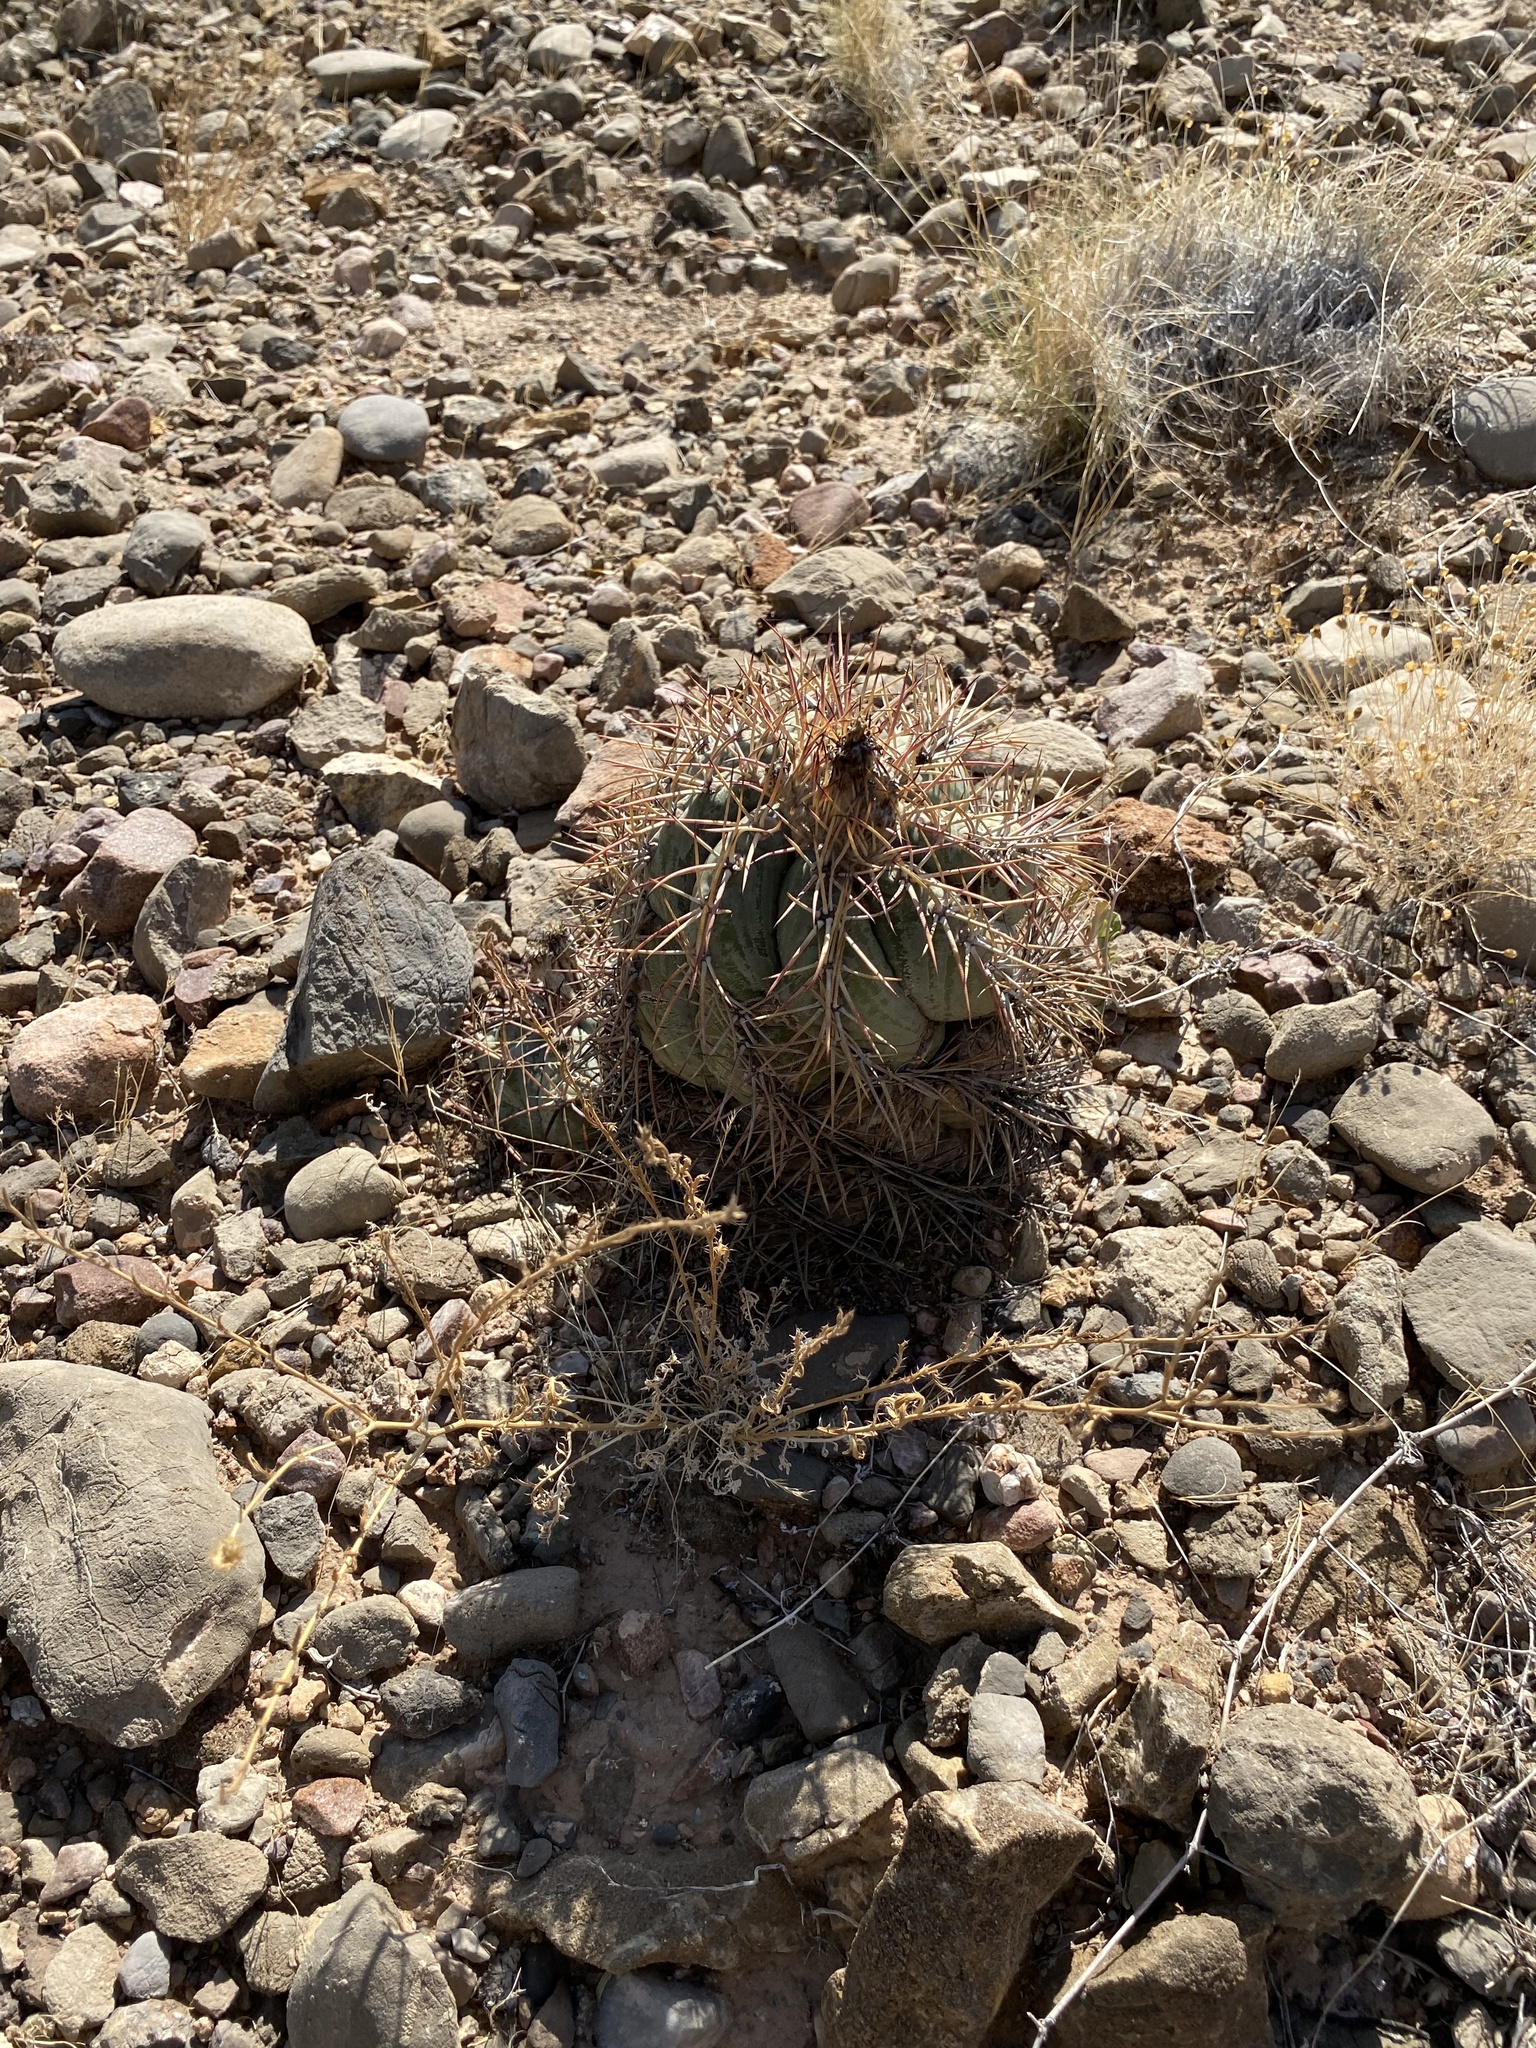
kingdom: Plantae
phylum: Tracheophyta
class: Magnoliopsida
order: Caryophyllales
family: Cactaceae
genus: Echinocactus
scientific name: Echinocactus horizonthalonius
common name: Devilshead
